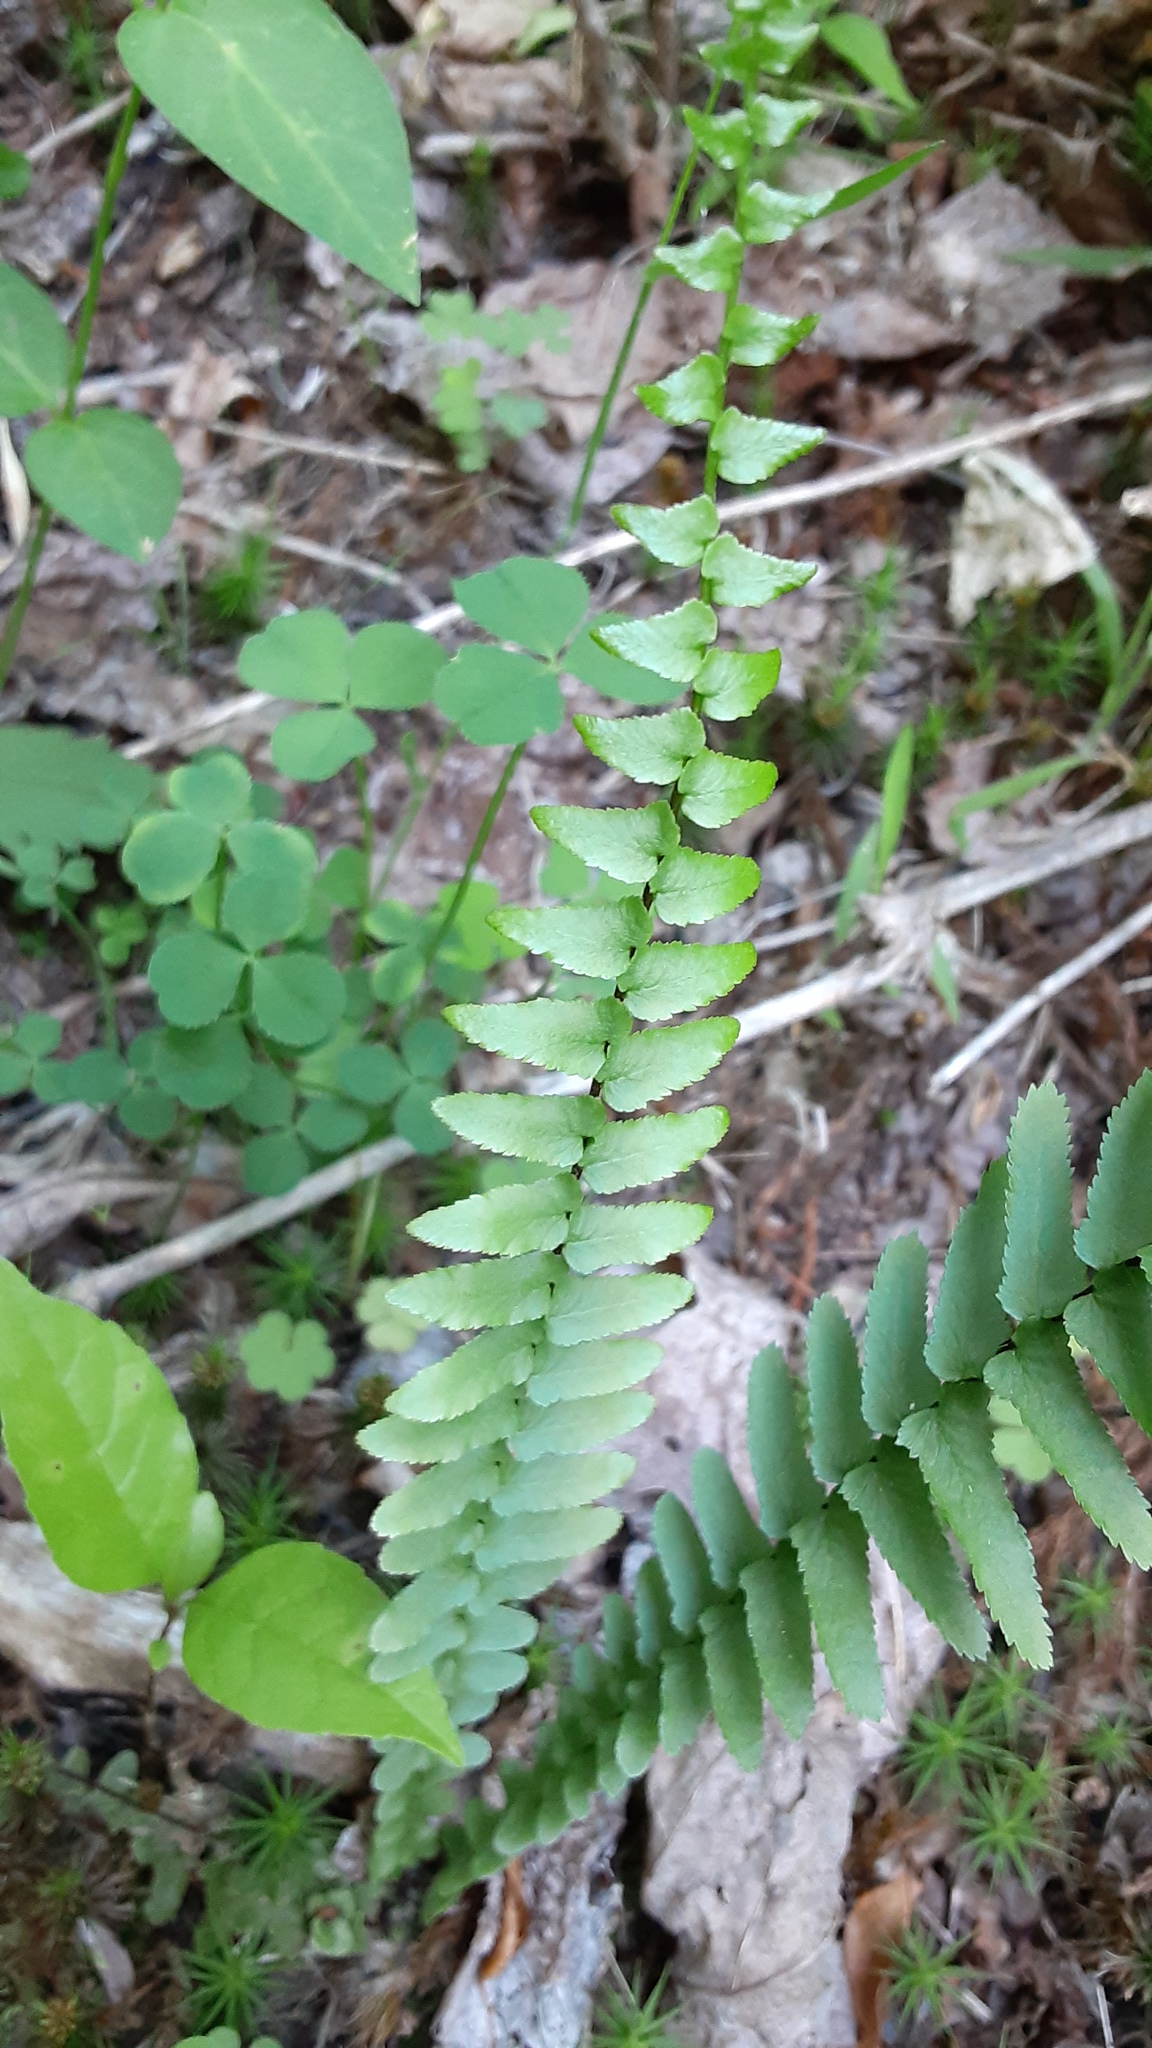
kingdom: Plantae
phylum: Tracheophyta
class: Polypodiopsida
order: Polypodiales
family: Aspleniaceae
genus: Asplenium
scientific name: Asplenium platyneuron
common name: Ebony spleenwort
